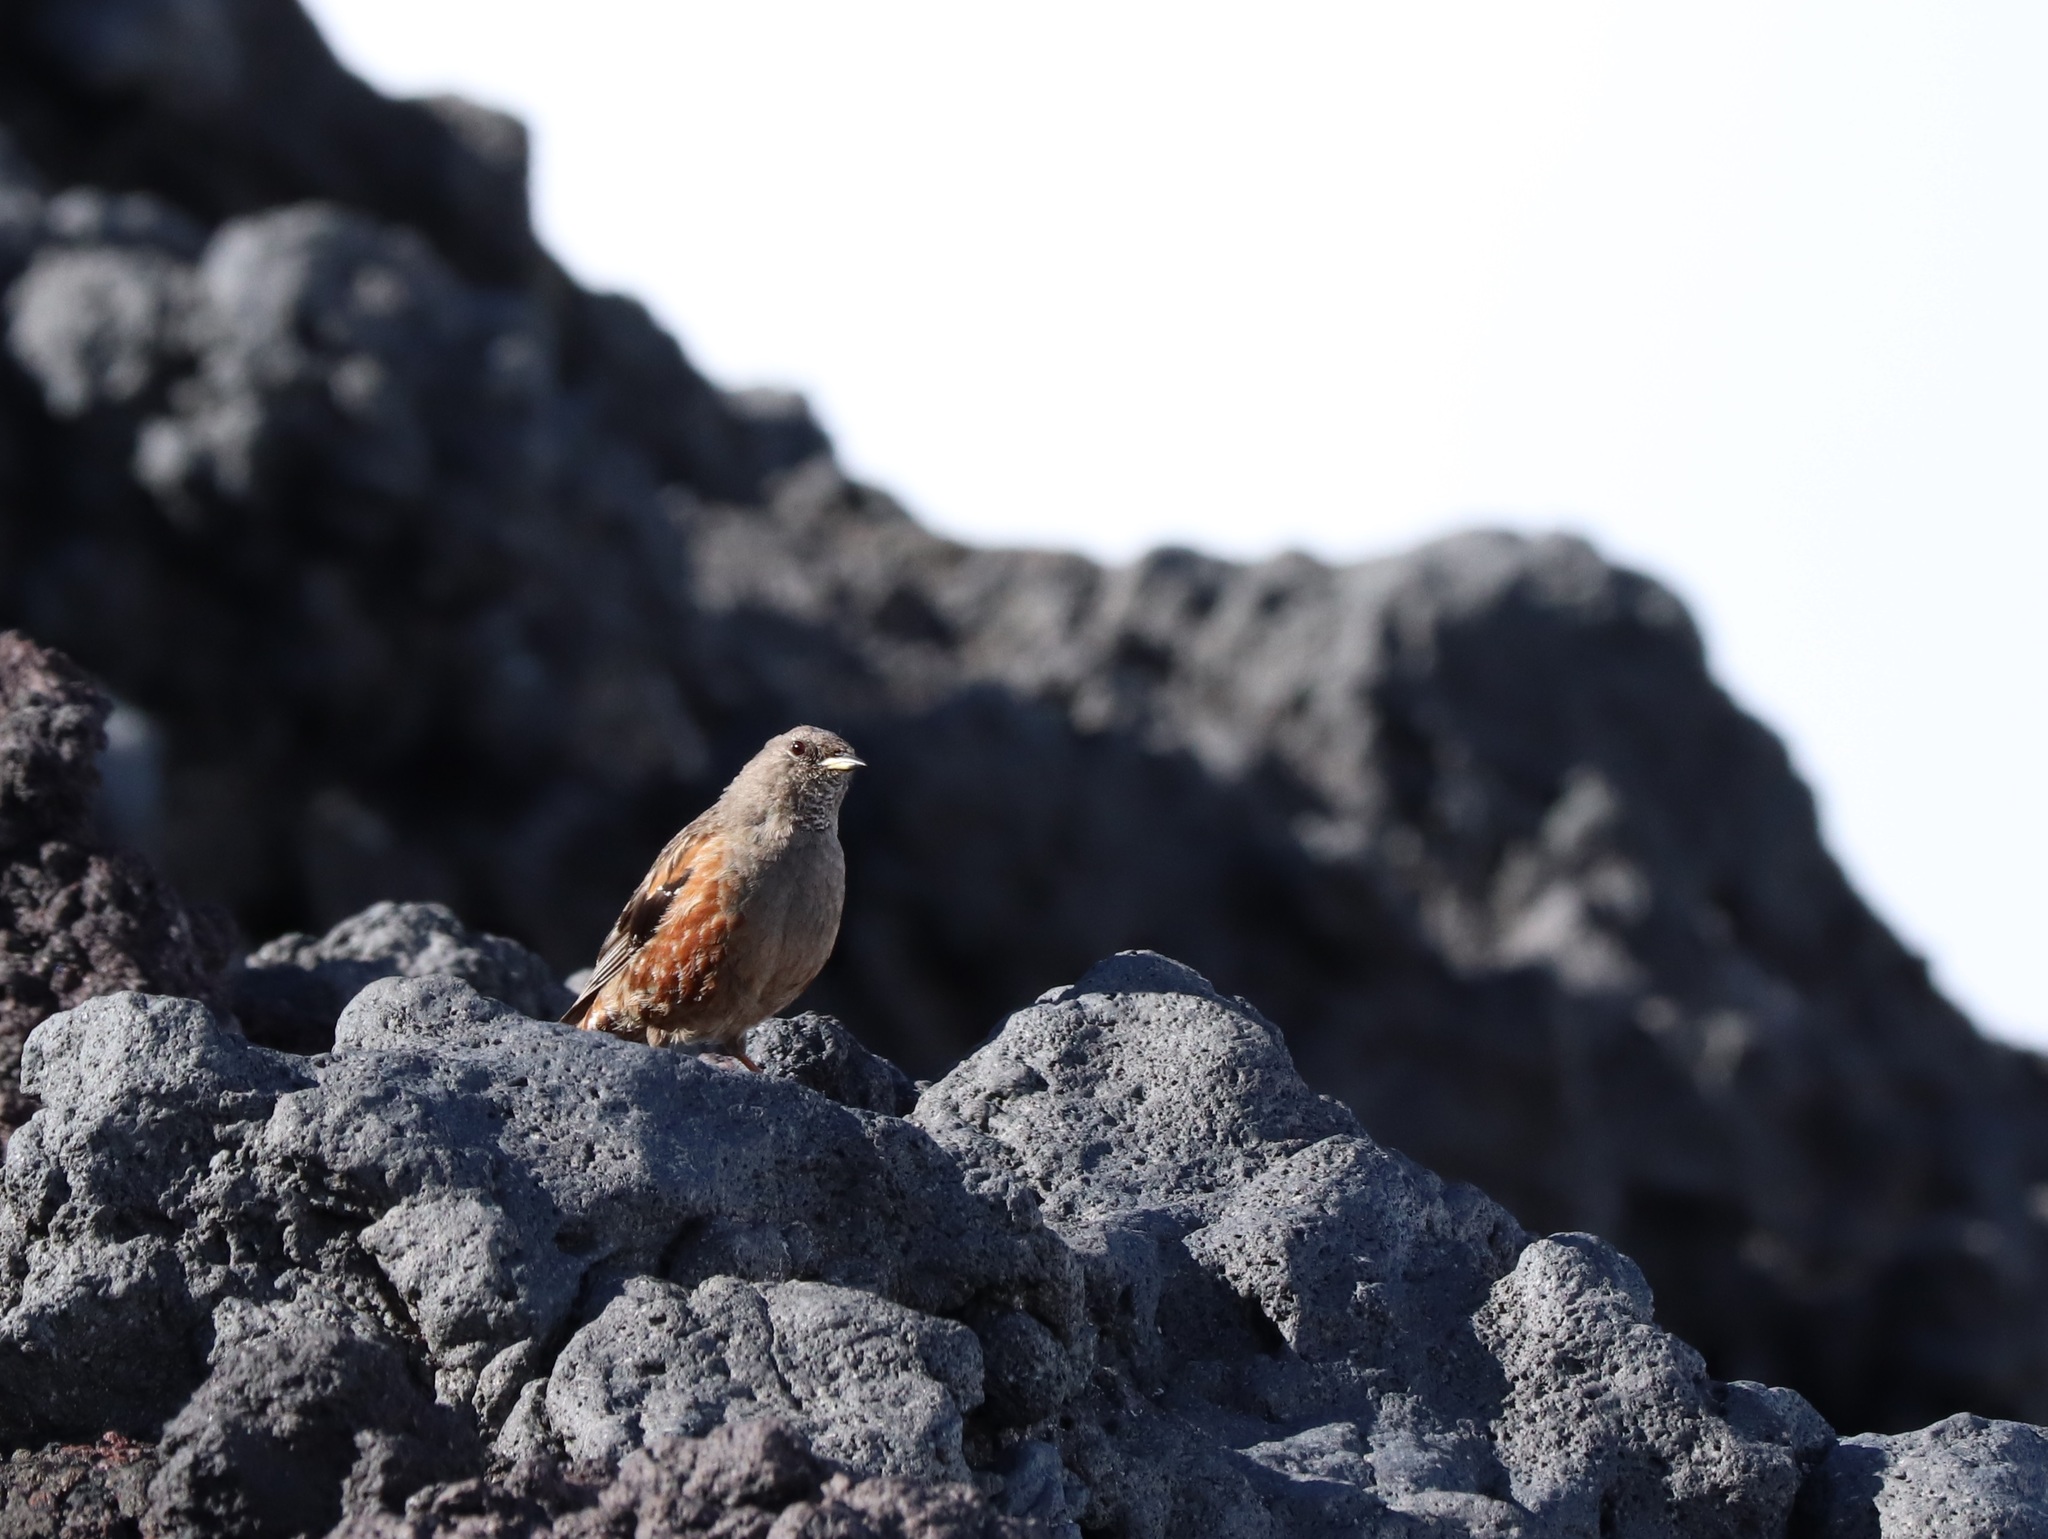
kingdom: Animalia
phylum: Chordata
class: Aves
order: Passeriformes
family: Prunellidae
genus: Prunella
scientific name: Prunella collaris
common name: Alpine accentor
